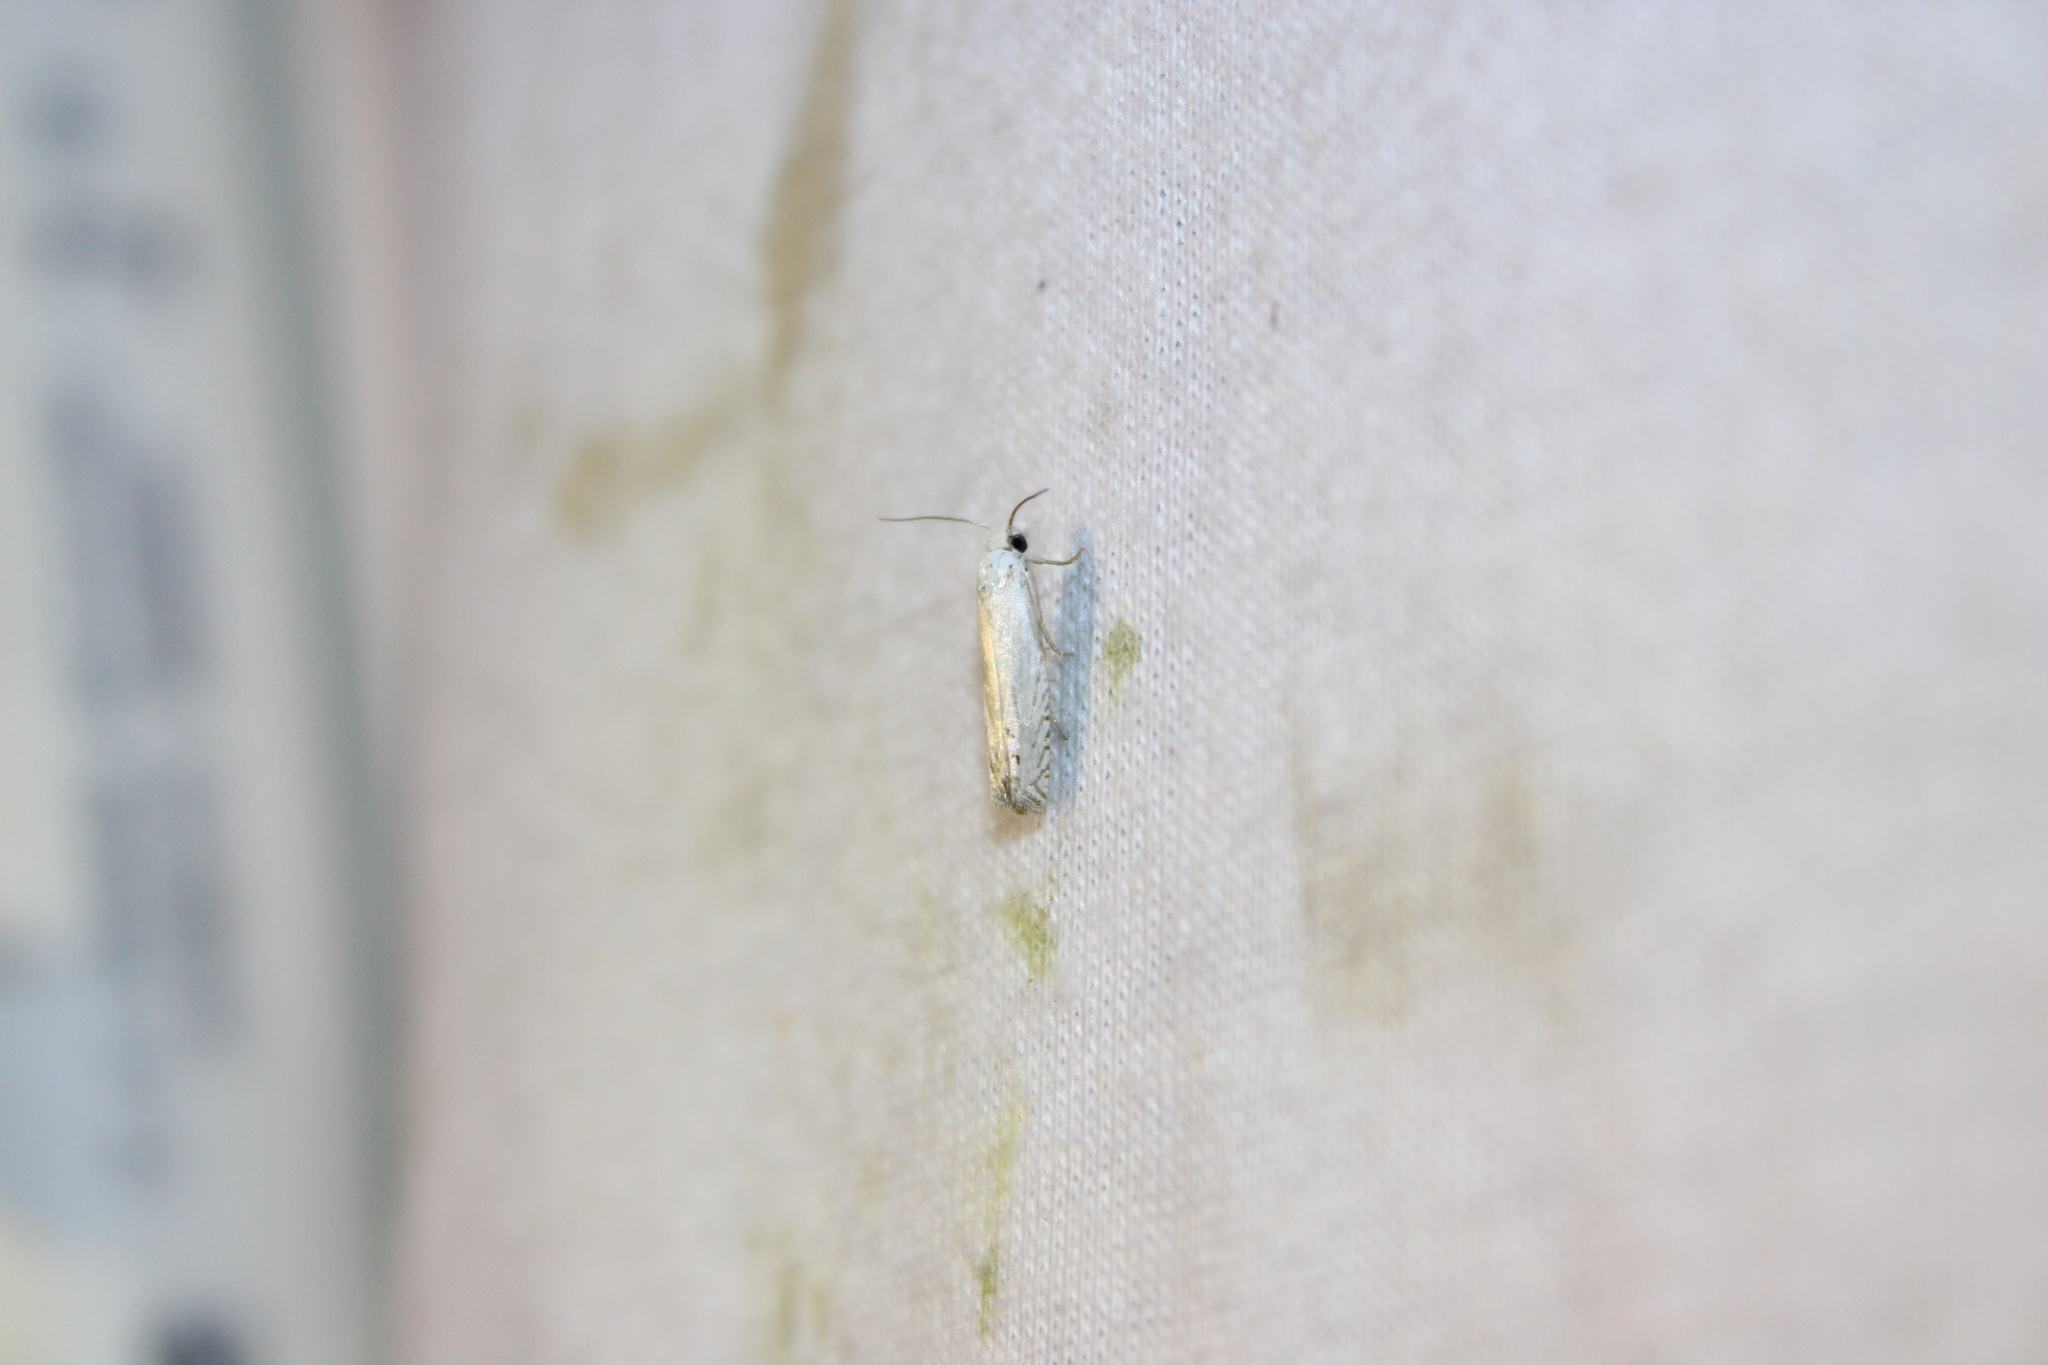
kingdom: Animalia
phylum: Arthropoda
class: Insecta
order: Lepidoptera
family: Tortricidae
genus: Pelochrista
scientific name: Pelochrista argentialbana
